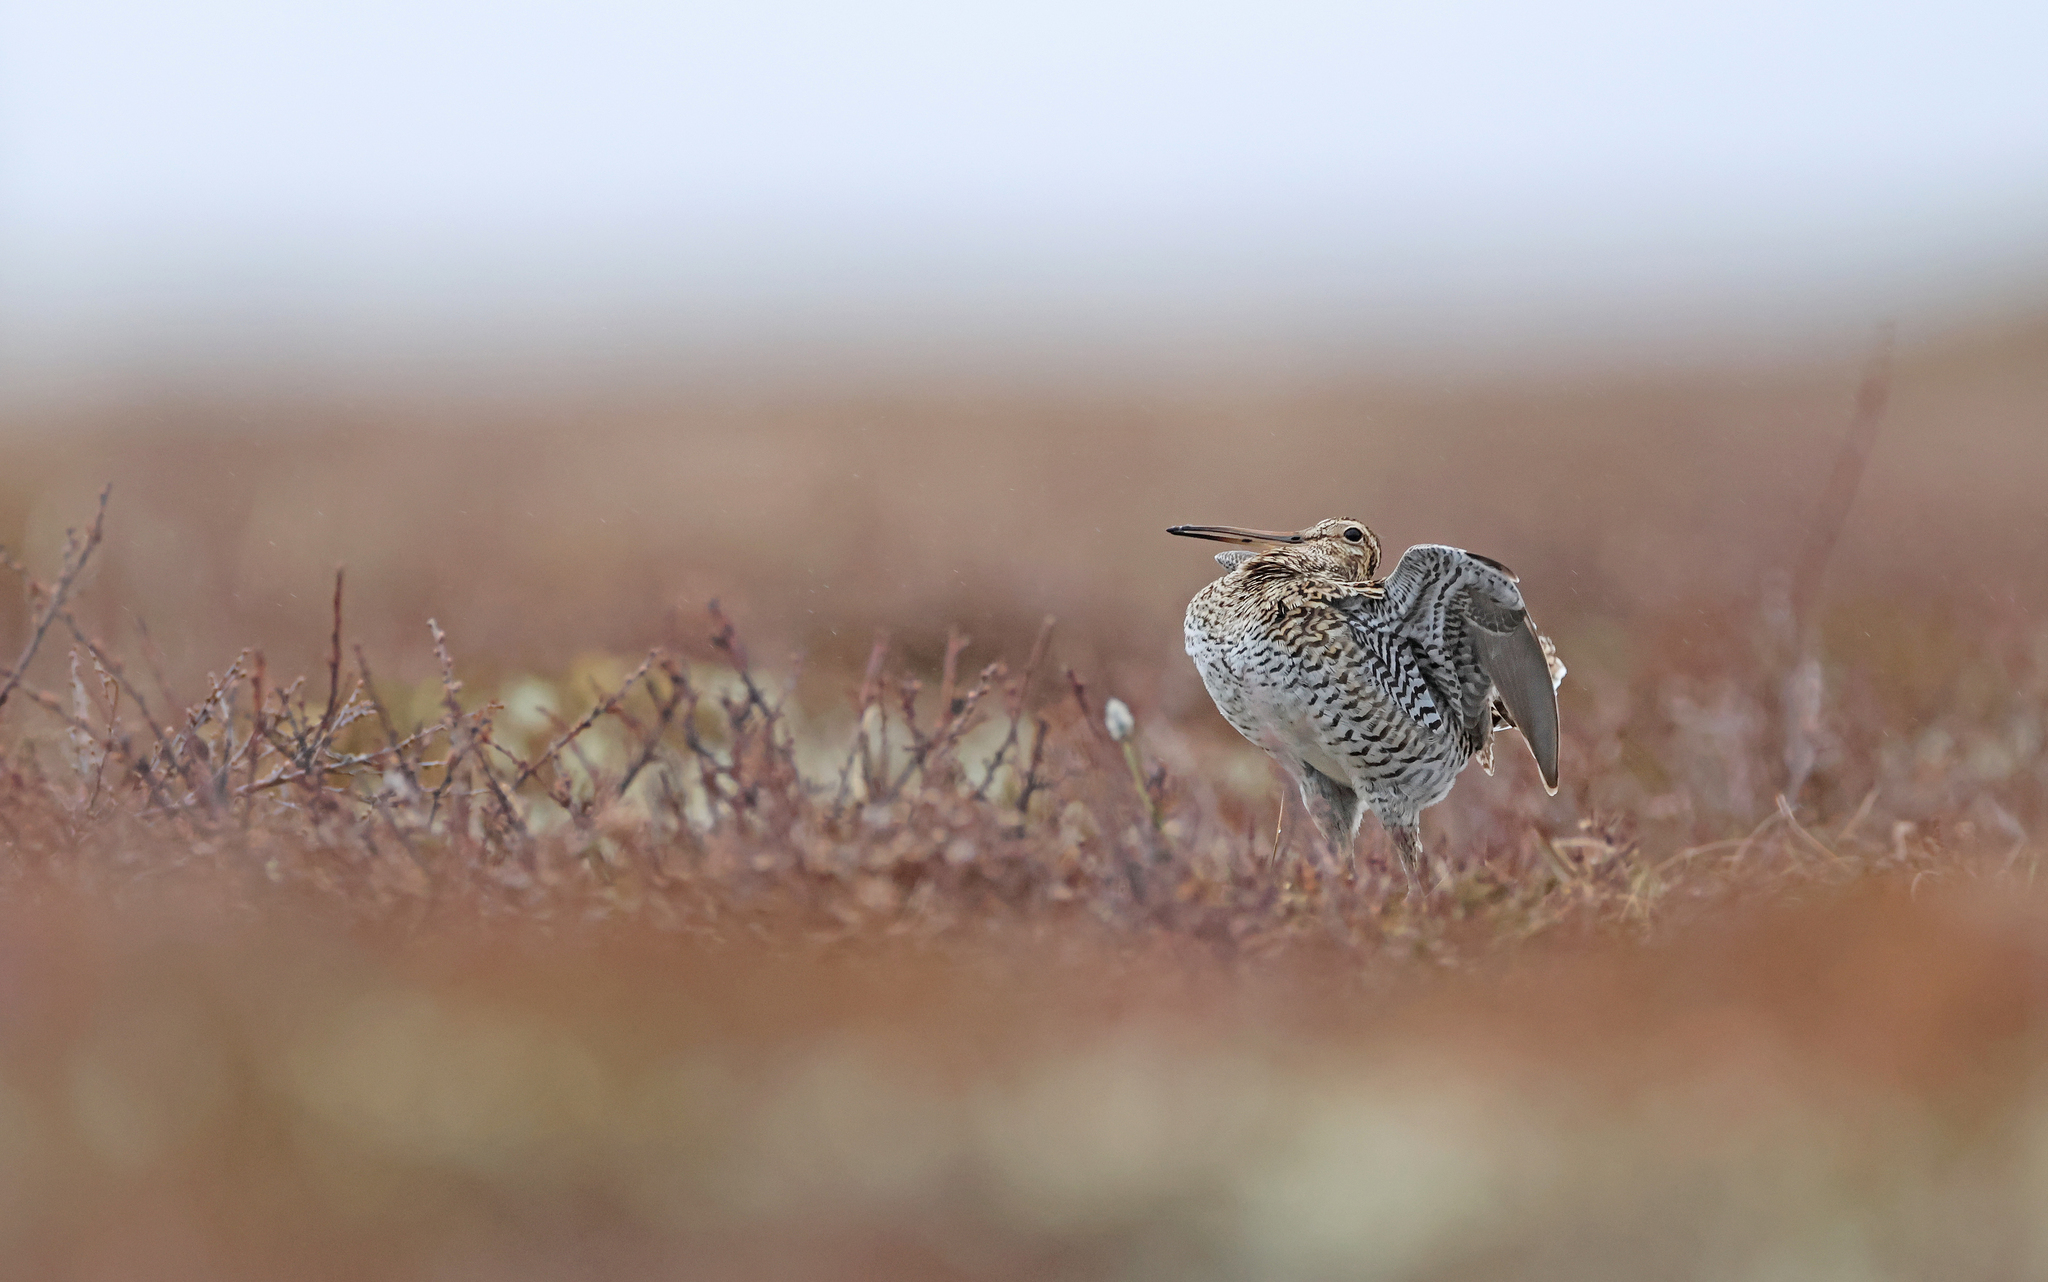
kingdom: Animalia
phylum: Chordata
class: Aves
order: Charadriiformes
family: Scolopacidae
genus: Gallinago
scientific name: Gallinago media
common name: Great snipe
